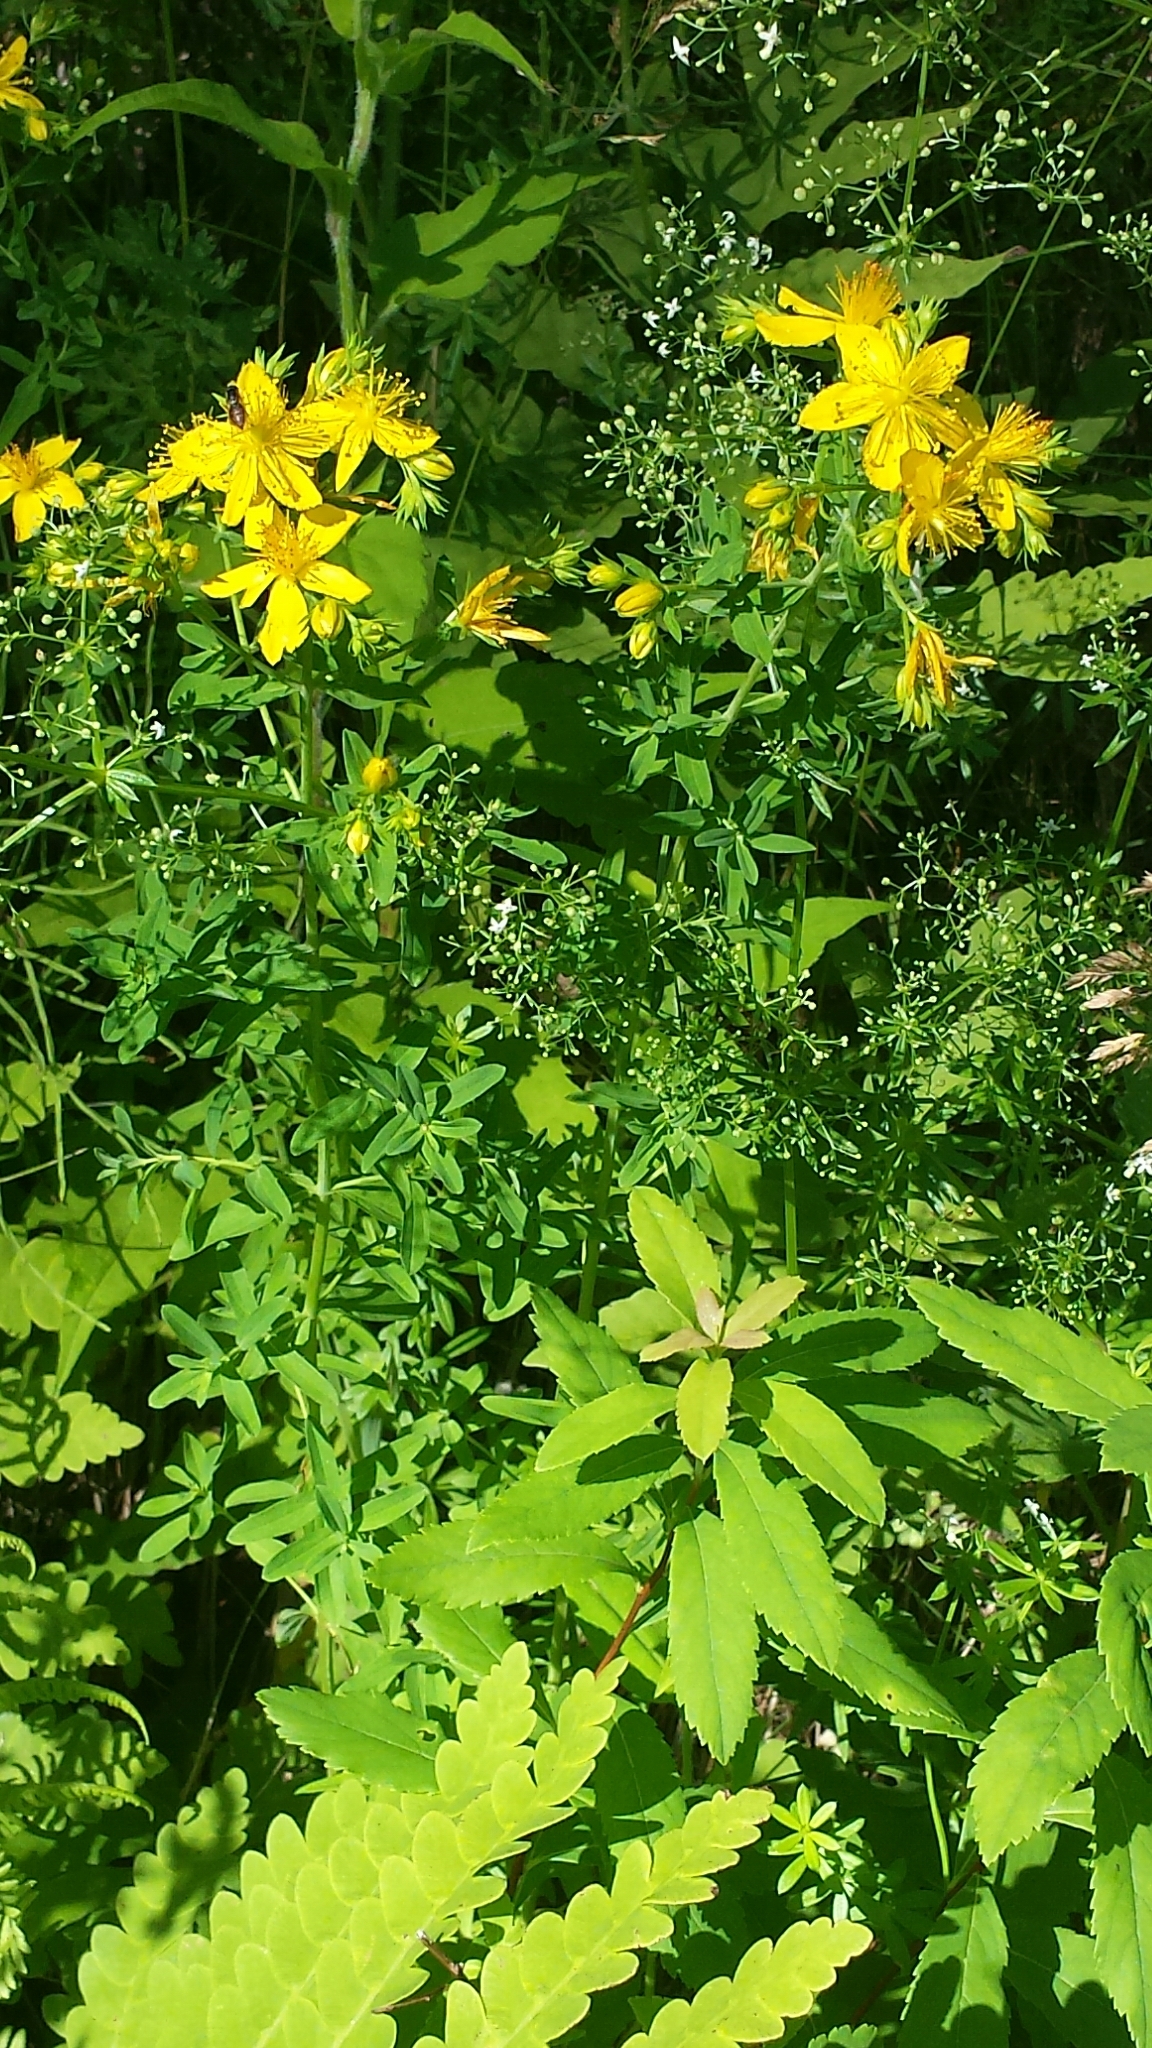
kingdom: Plantae
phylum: Tracheophyta
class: Magnoliopsida
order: Malpighiales
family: Hypericaceae
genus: Hypericum
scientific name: Hypericum perforatum
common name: Common st. johnswort
